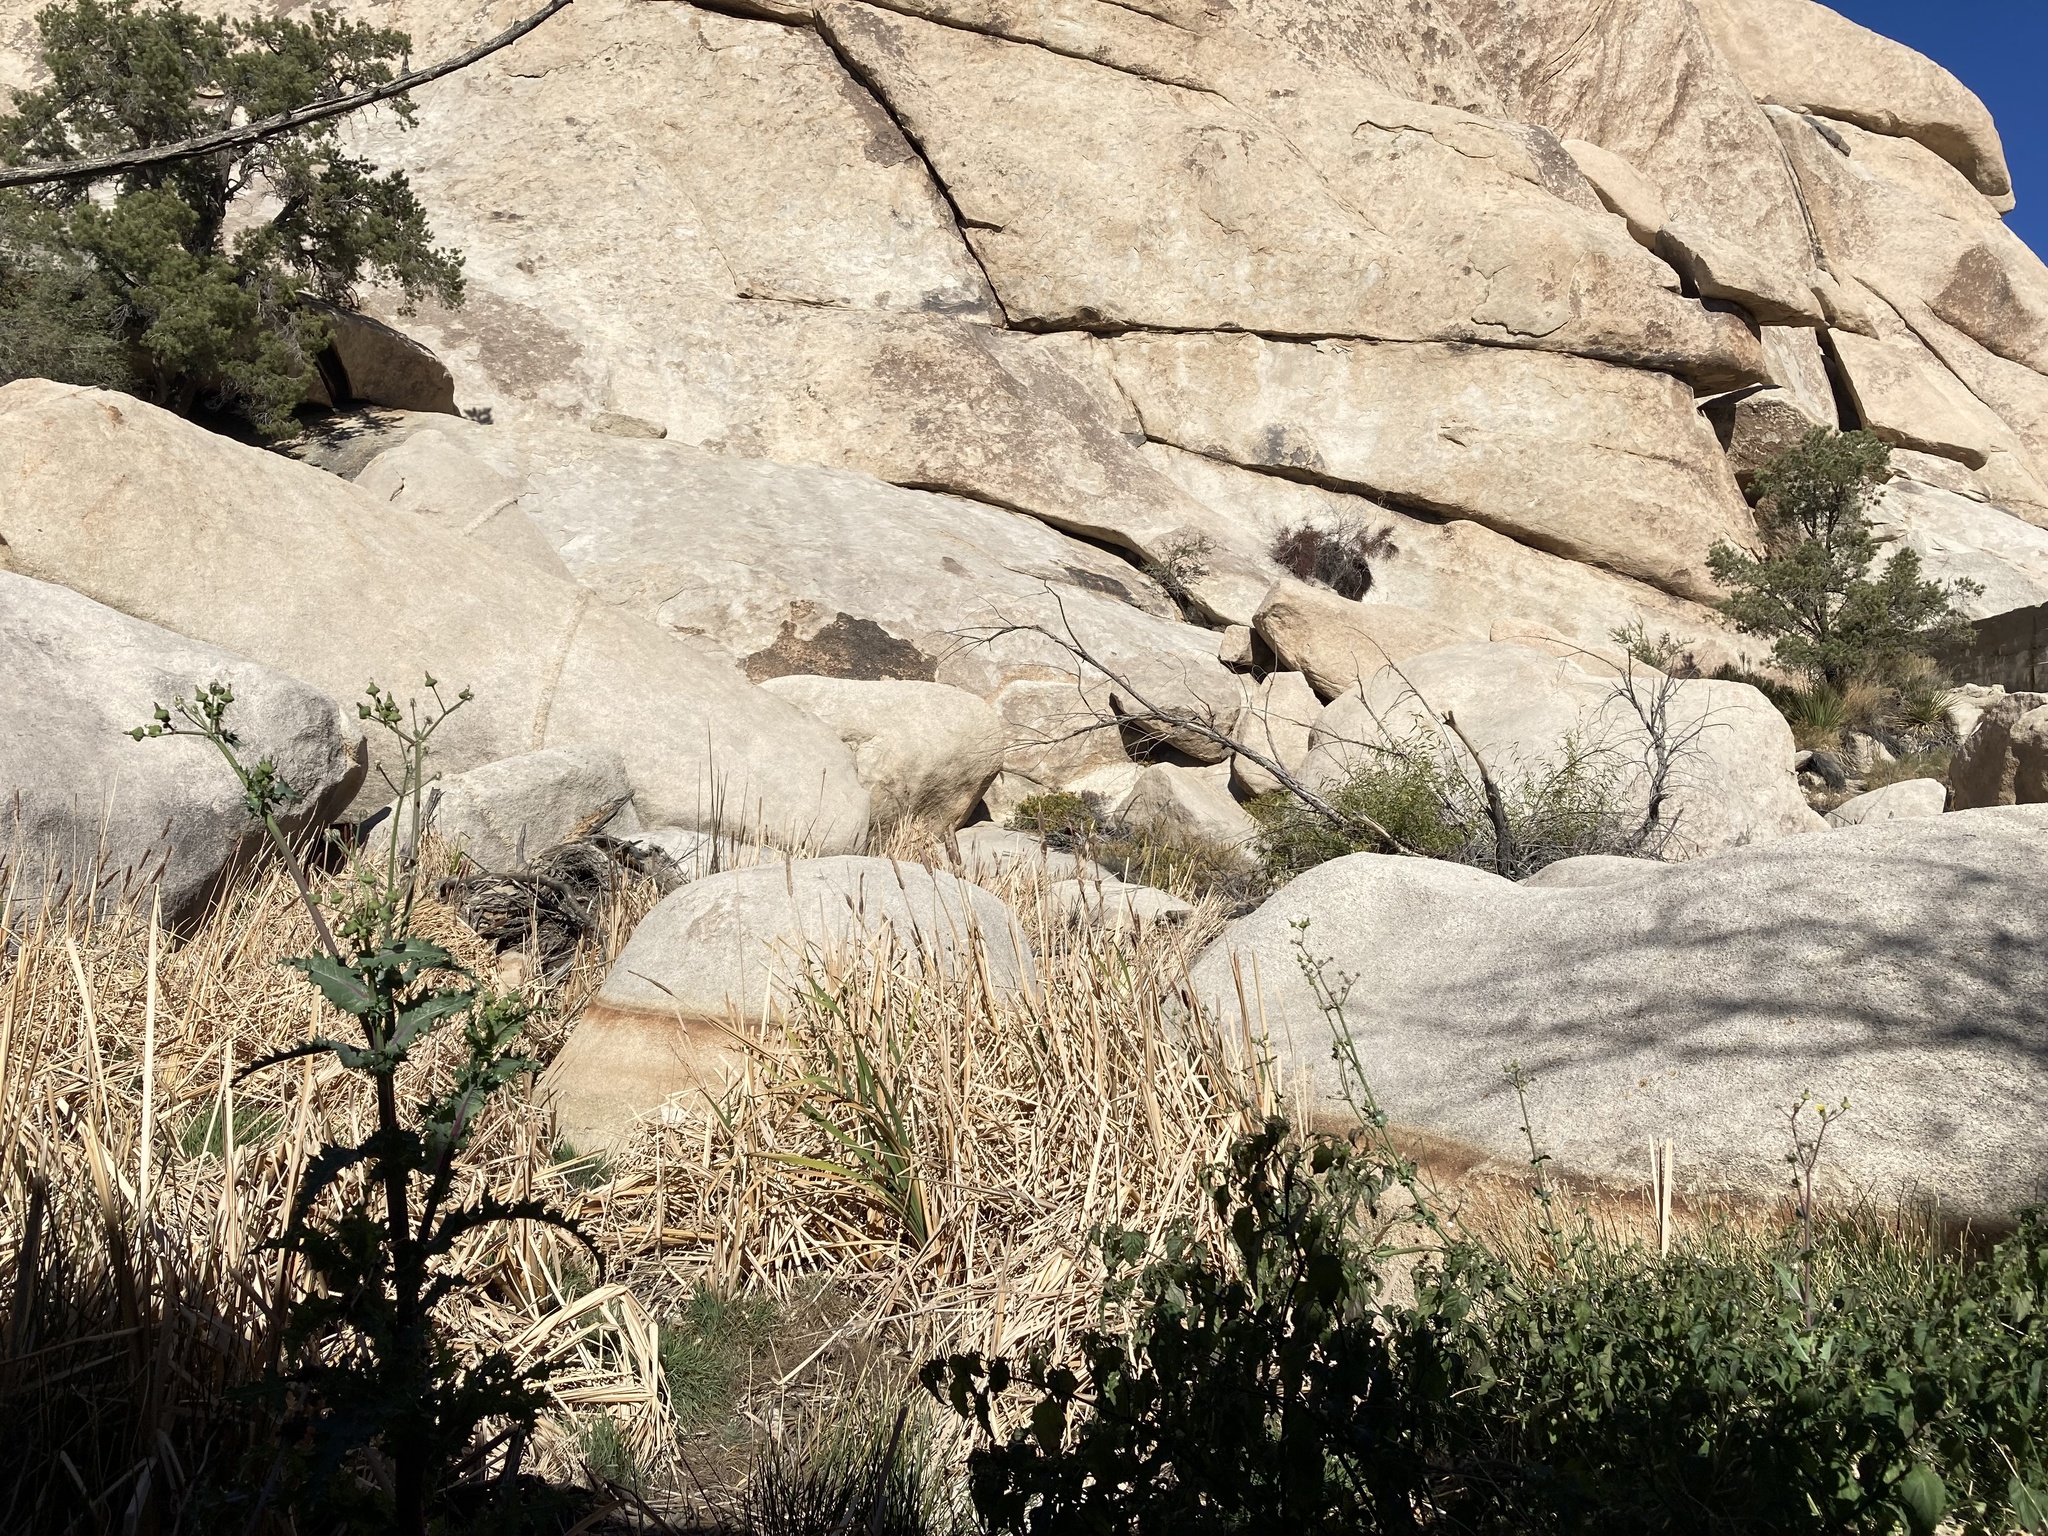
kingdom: Plantae
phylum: Tracheophyta
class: Liliopsida
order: Poales
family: Typhaceae
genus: Typha
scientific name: Typha domingensis
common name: Southern cattail
